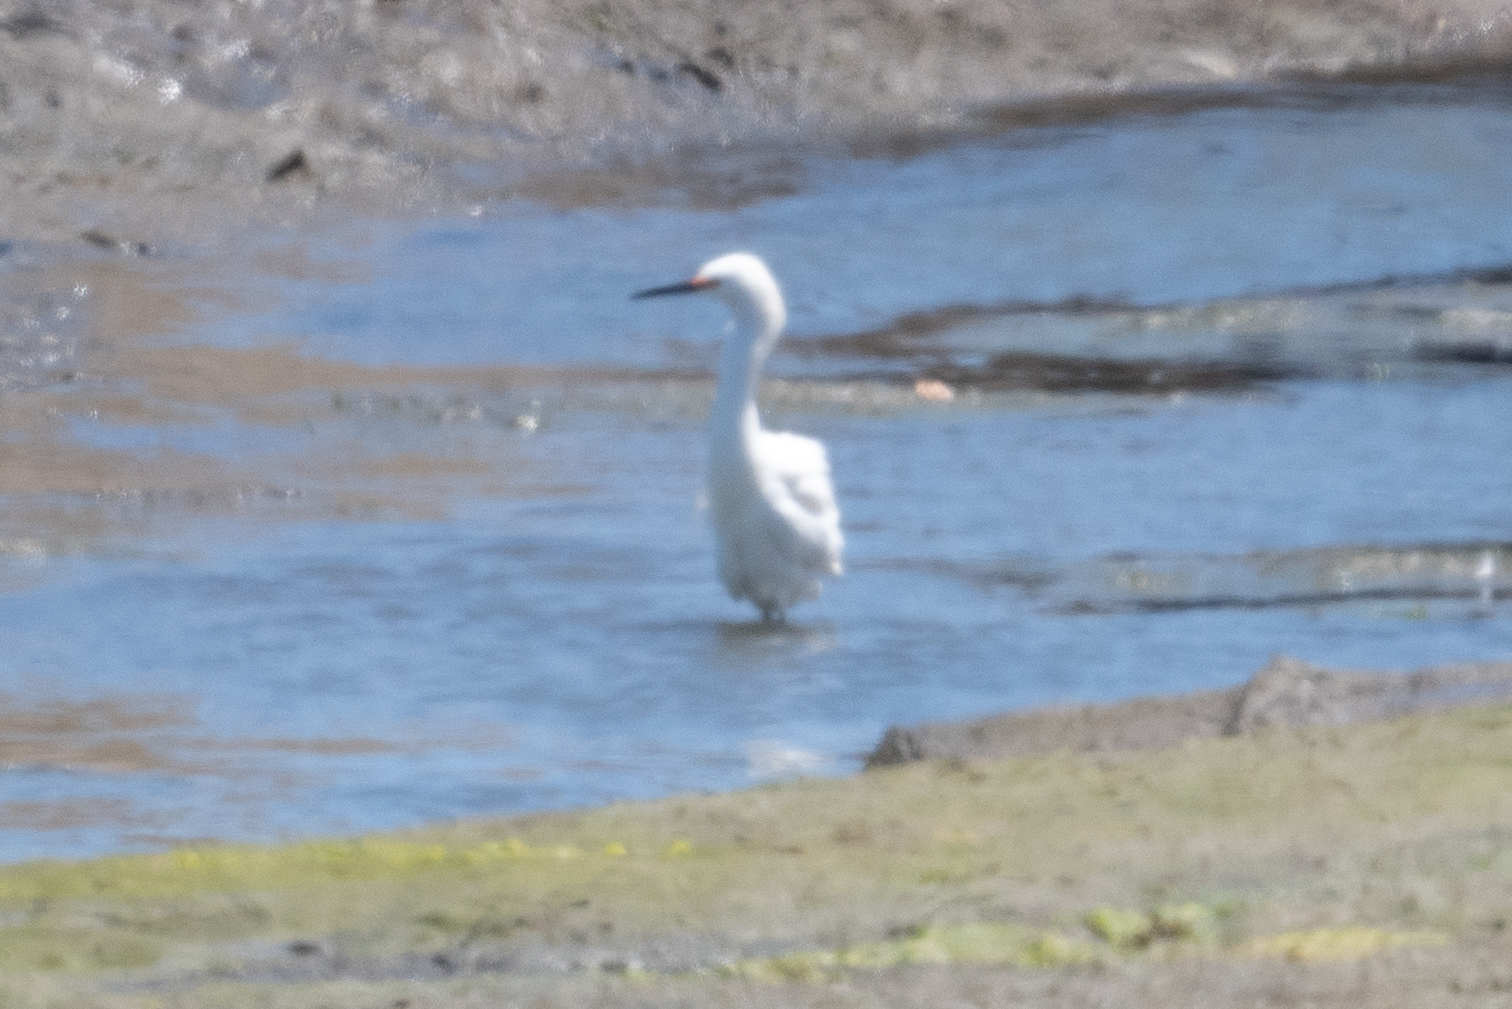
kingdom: Animalia
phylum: Chordata
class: Aves
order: Pelecaniformes
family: Ardeidae
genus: Egretta
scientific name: Egretta thula
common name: Snowy egret
